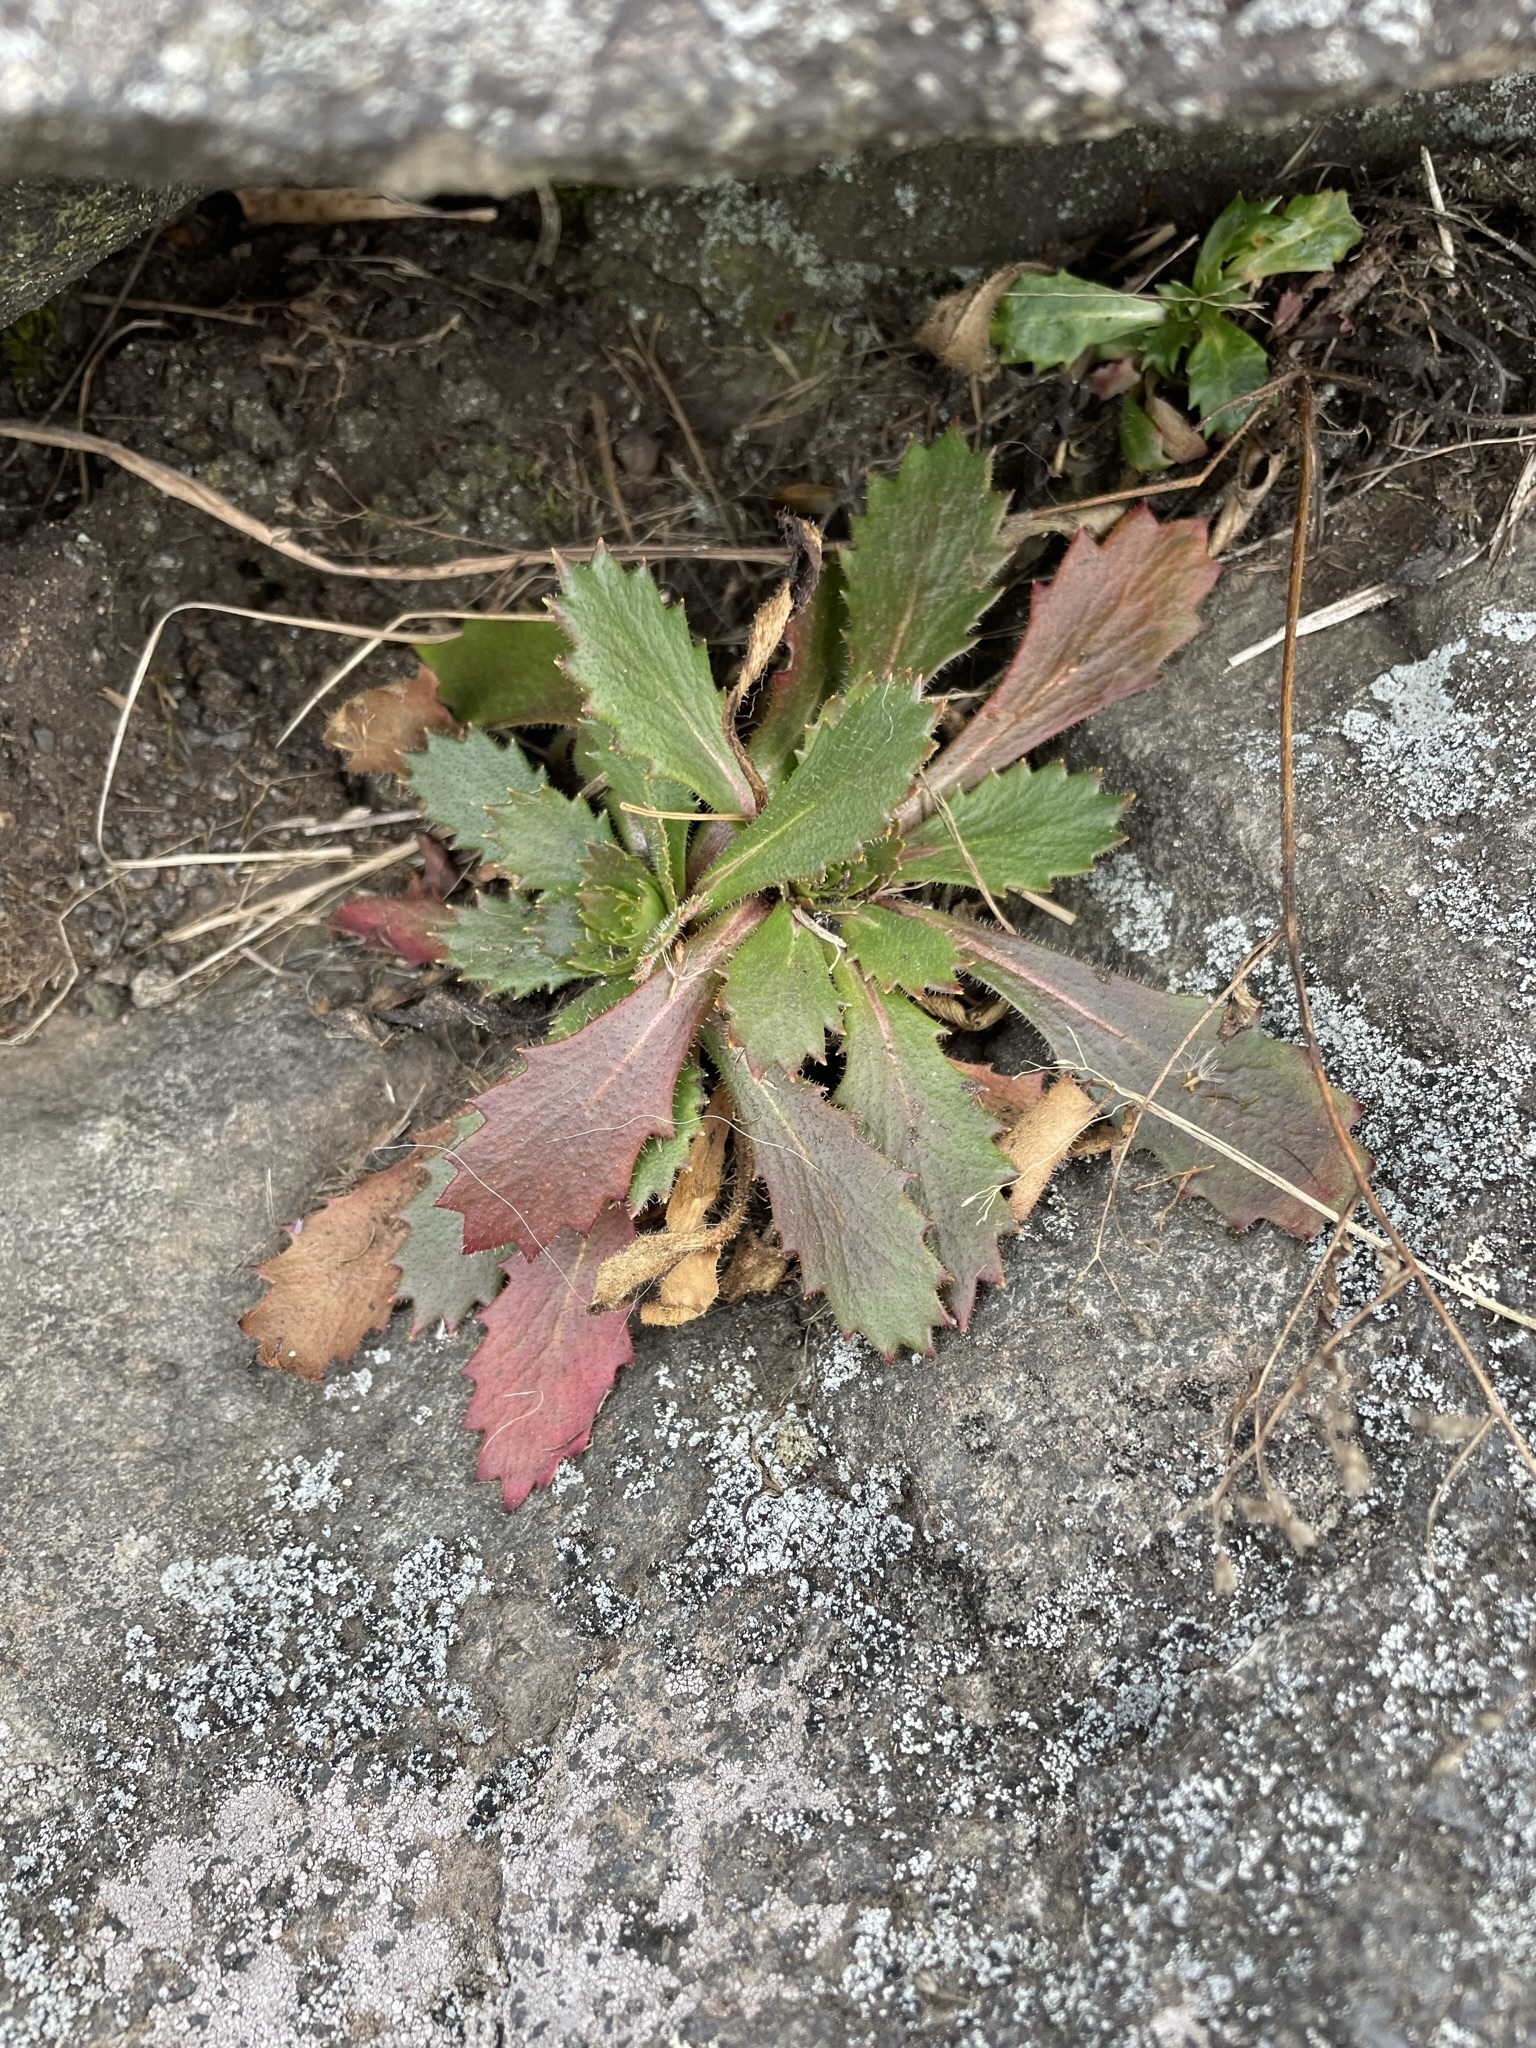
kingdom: Plantae
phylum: Tracheophyta
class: Magnoliopsida
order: Saxifragales
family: Saxifragaceae
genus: Micranthes
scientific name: Micranthes petiolaris
